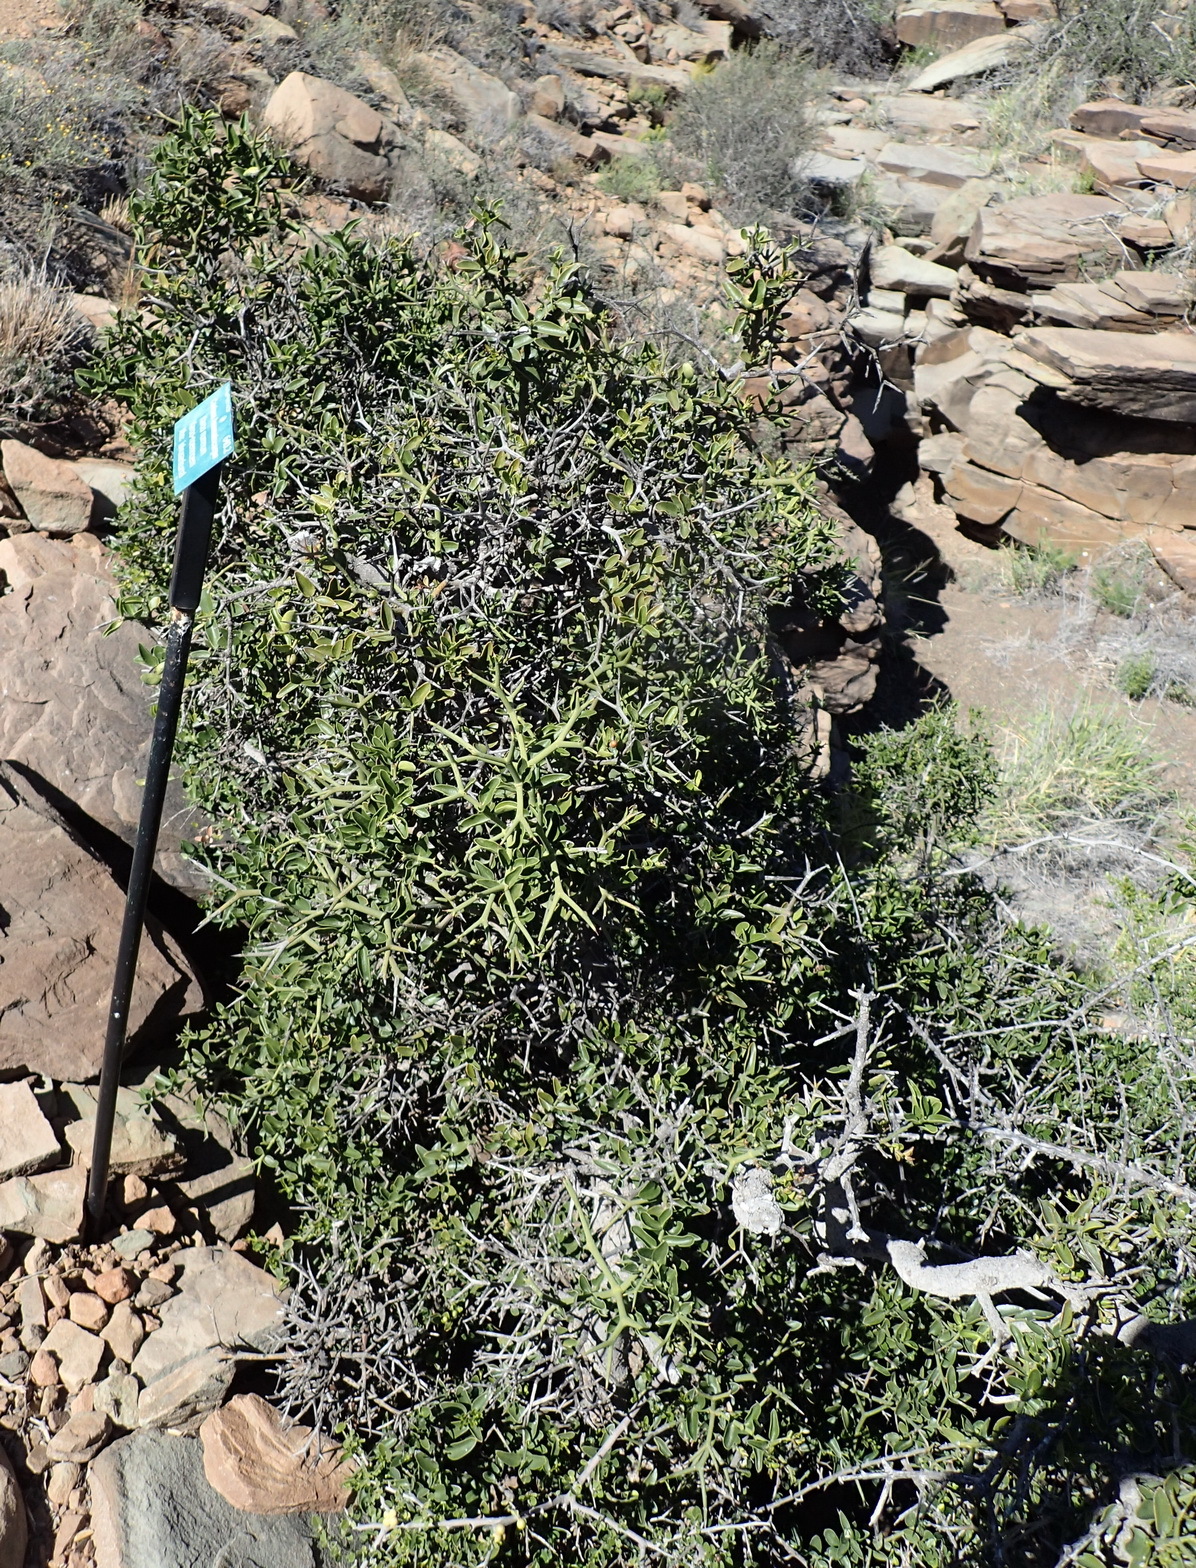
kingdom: Plantae
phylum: Tracheophyta
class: Magnoliopsida
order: Gentianales
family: Apocynaceae
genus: Carissa
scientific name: Carissa haematocarpa
